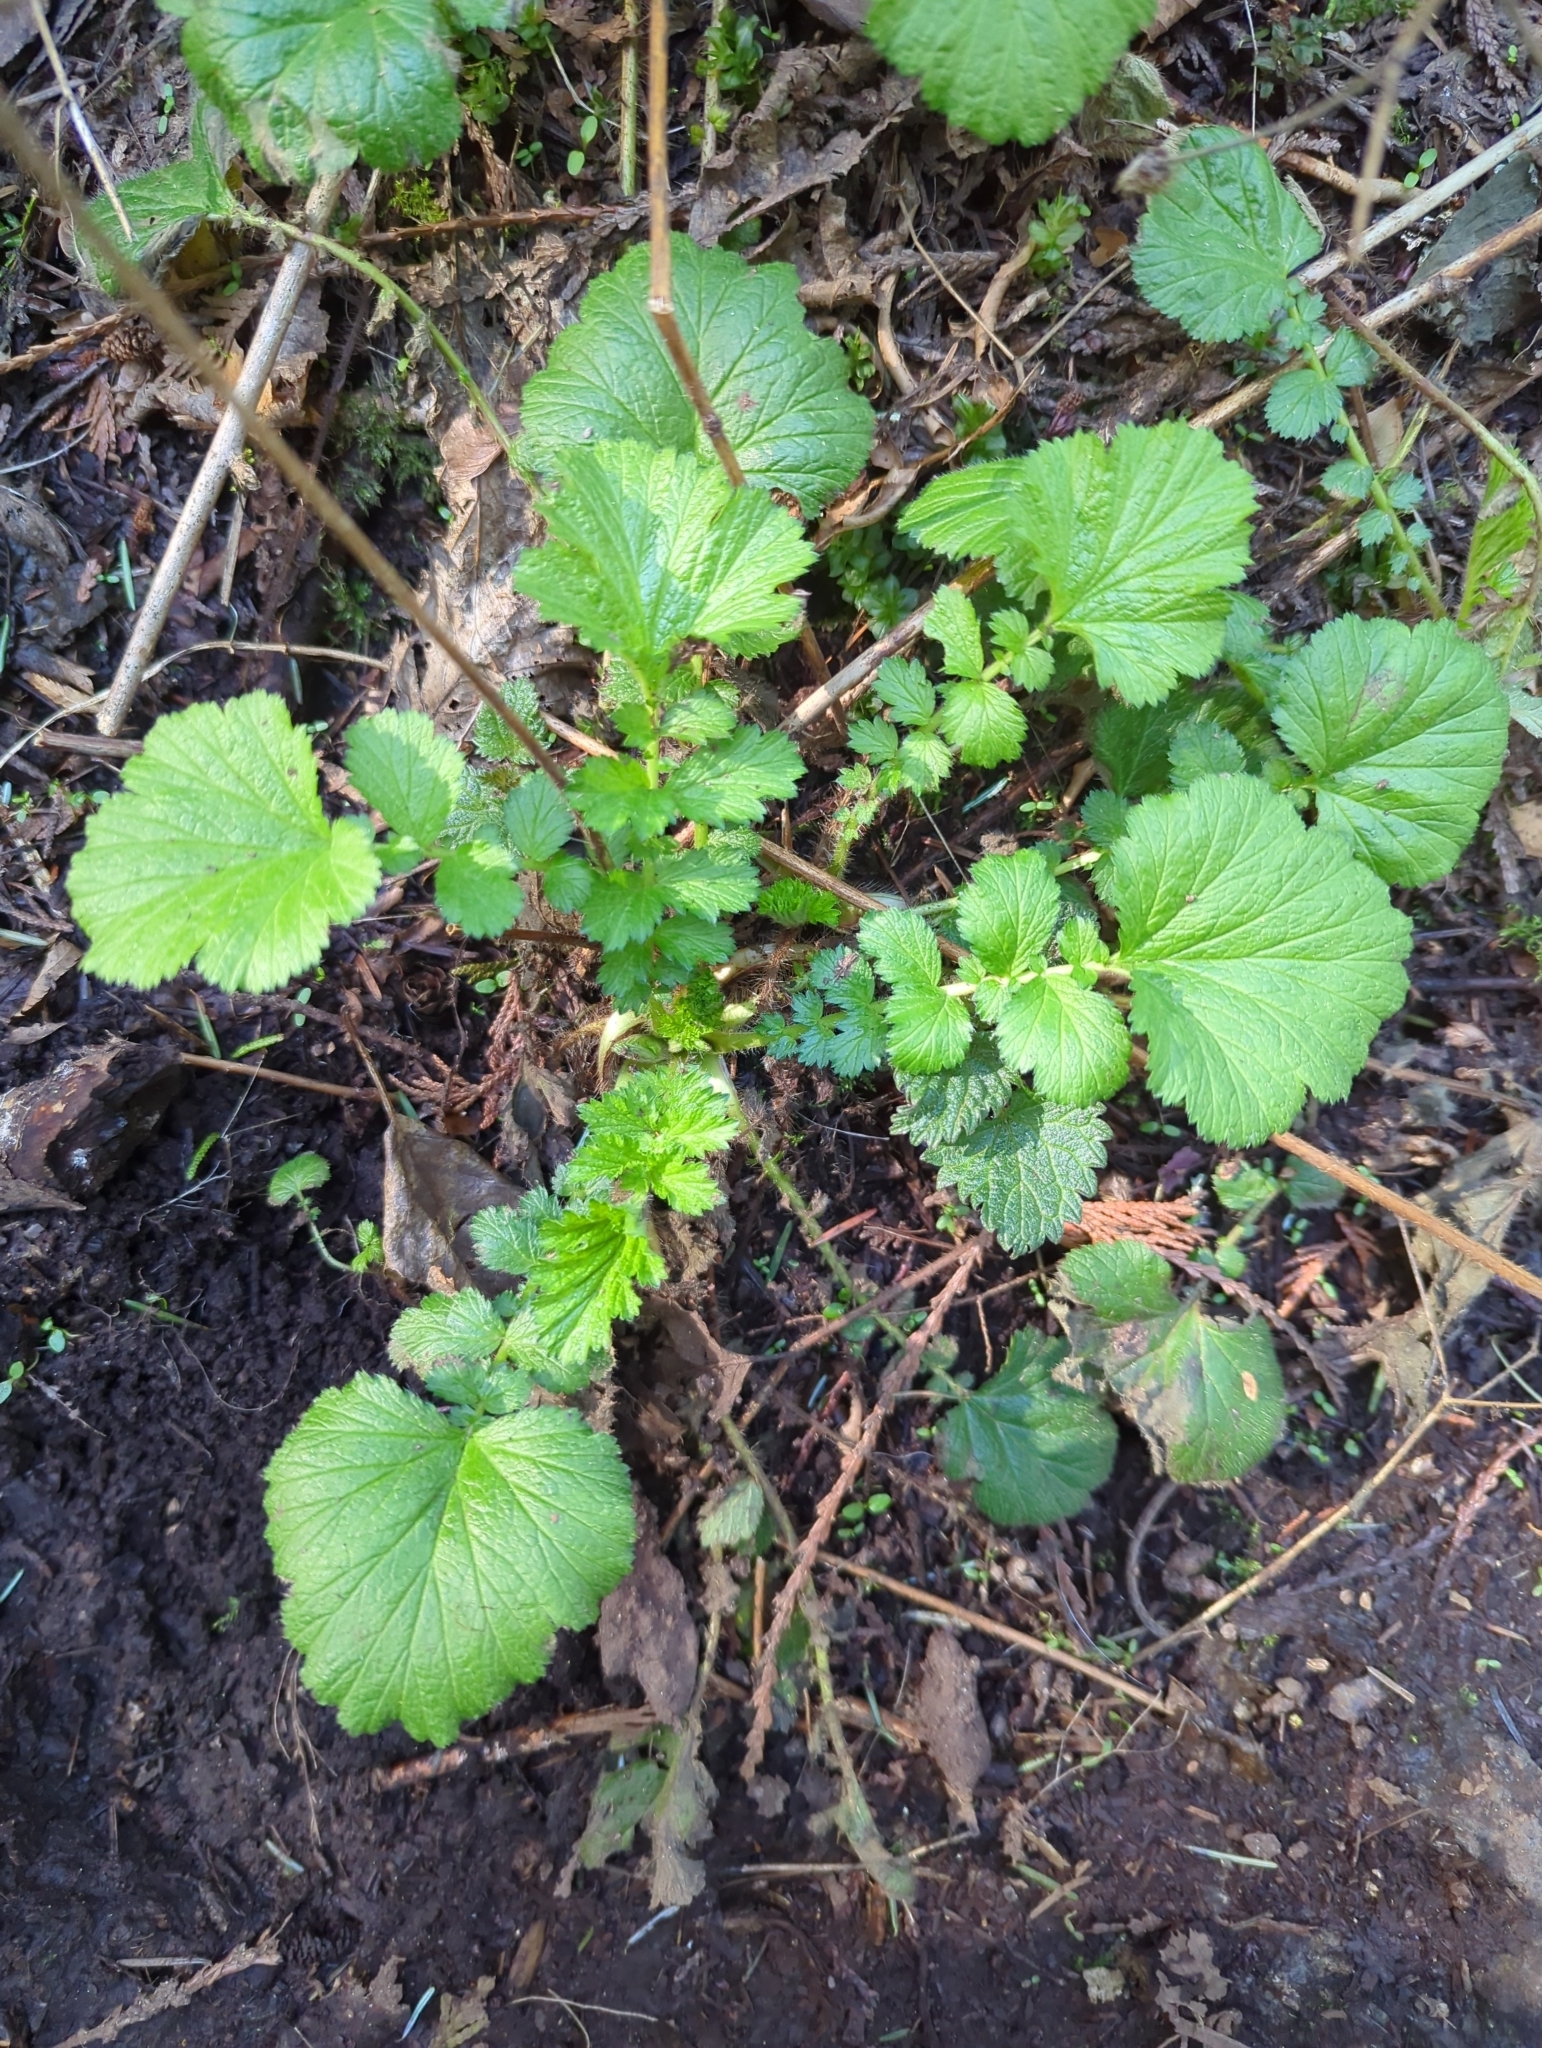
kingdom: Plantae
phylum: Tracheophyta
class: Magnoliopsida
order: Rosales
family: Rosaceae
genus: Geum
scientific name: Geum macrophyllum
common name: Large-leaved avens
